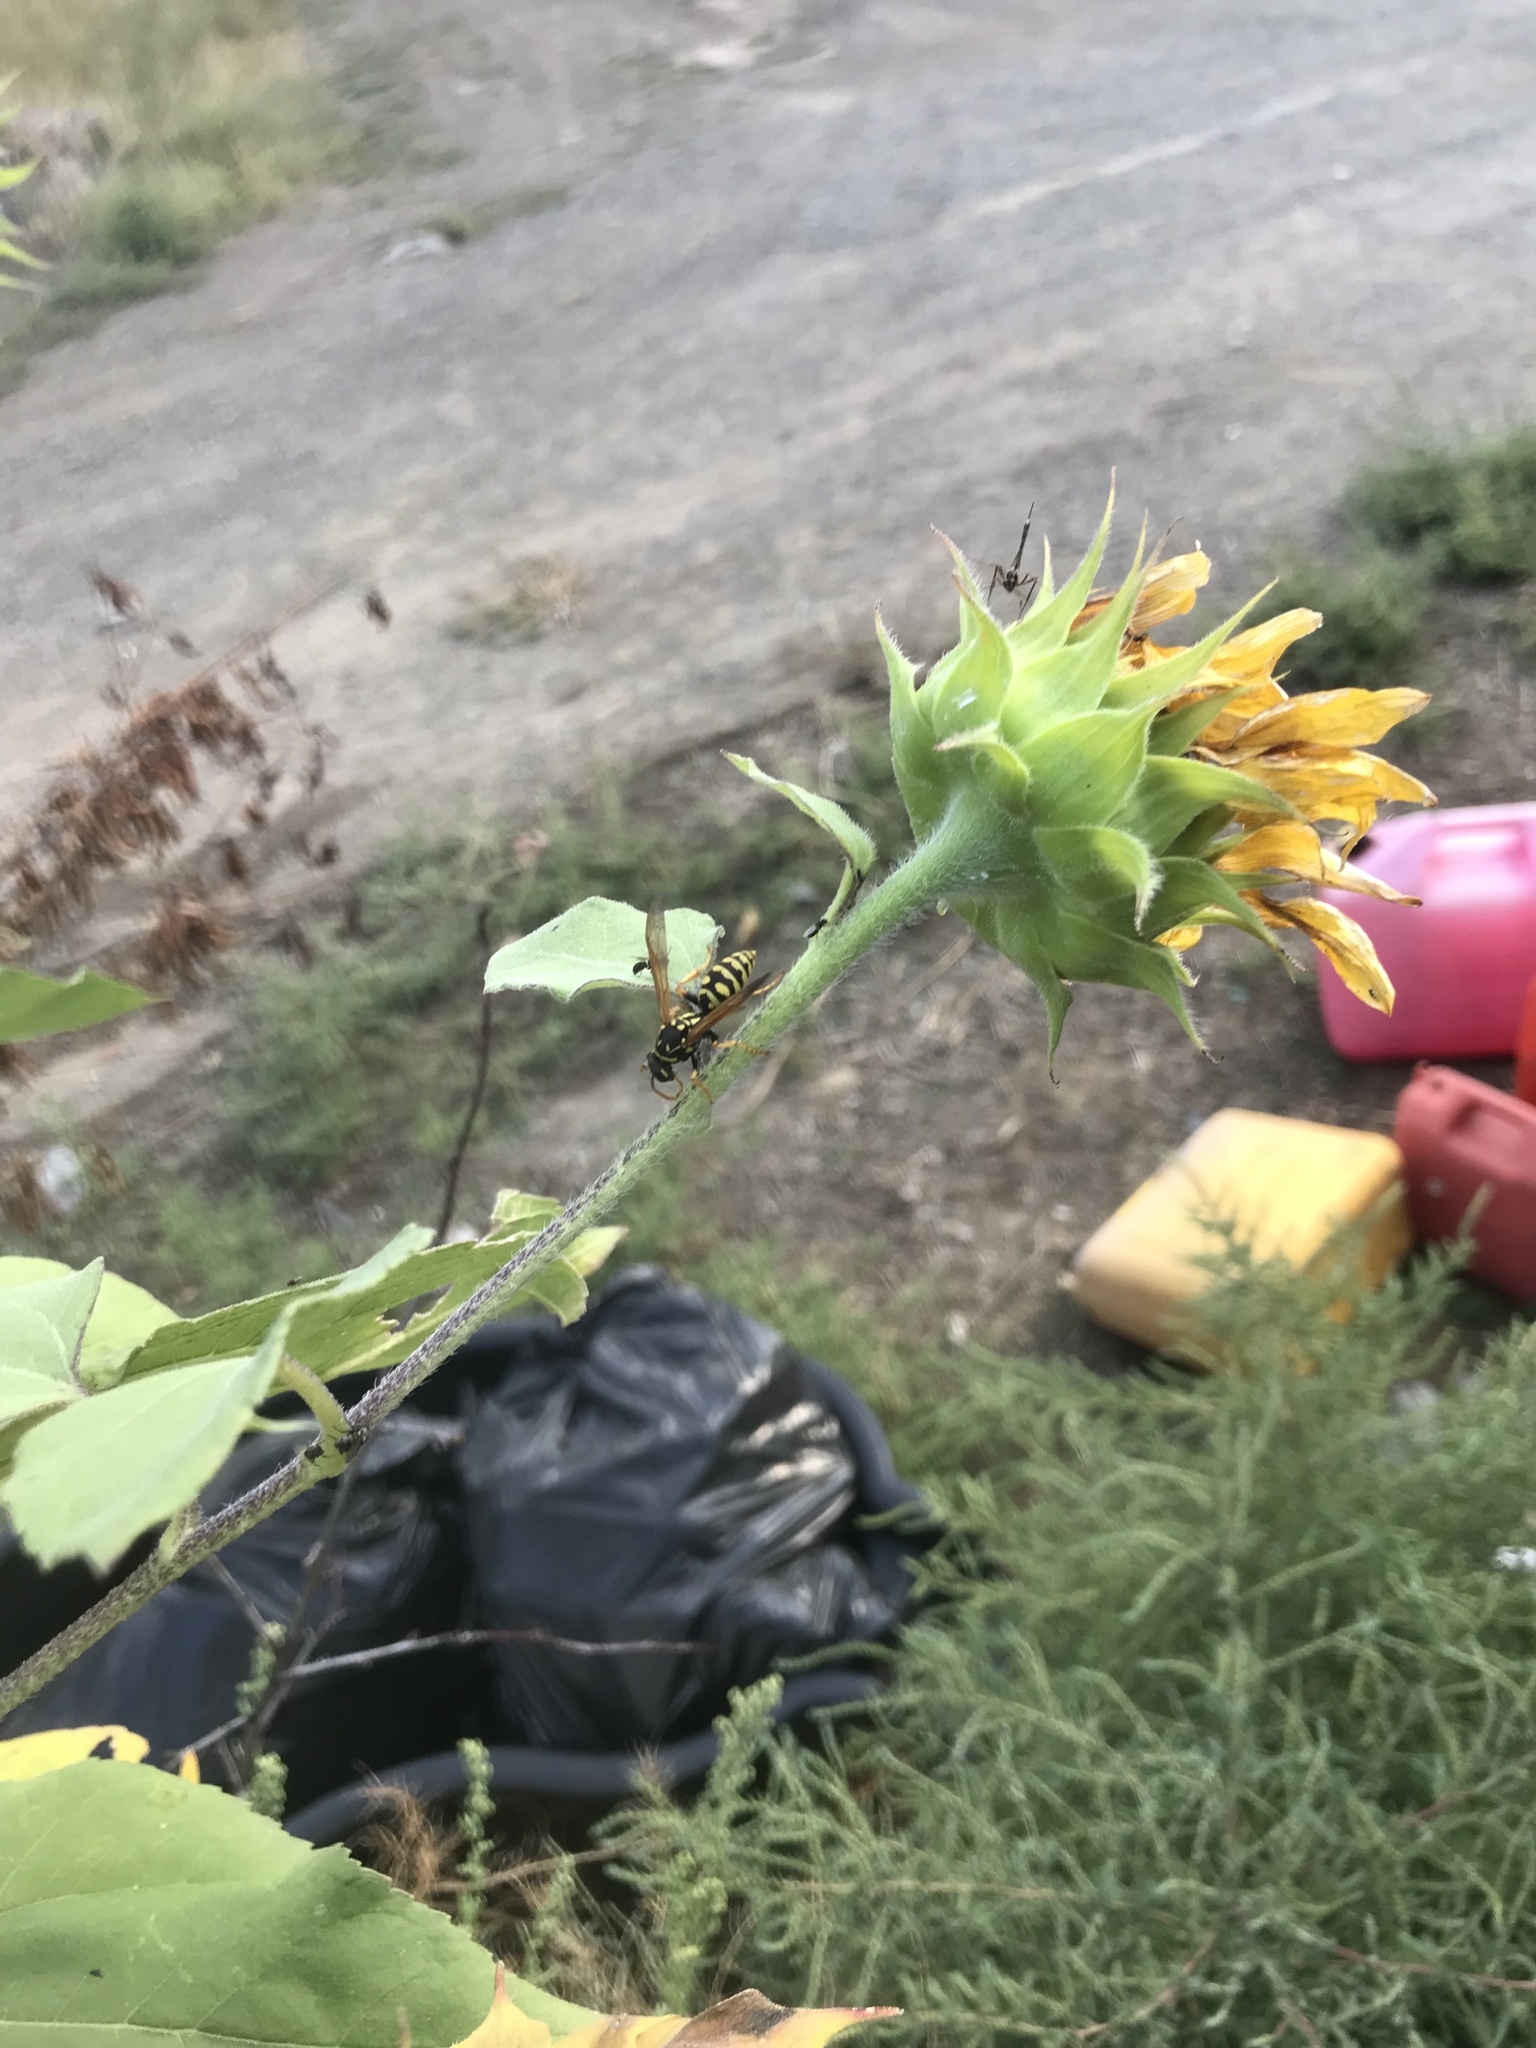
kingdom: Animalia
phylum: Arthropoda
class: Insecta
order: Hymenoptera
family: Eumenidae
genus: Polistes
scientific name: Polistes dominula
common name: Paper wasp
